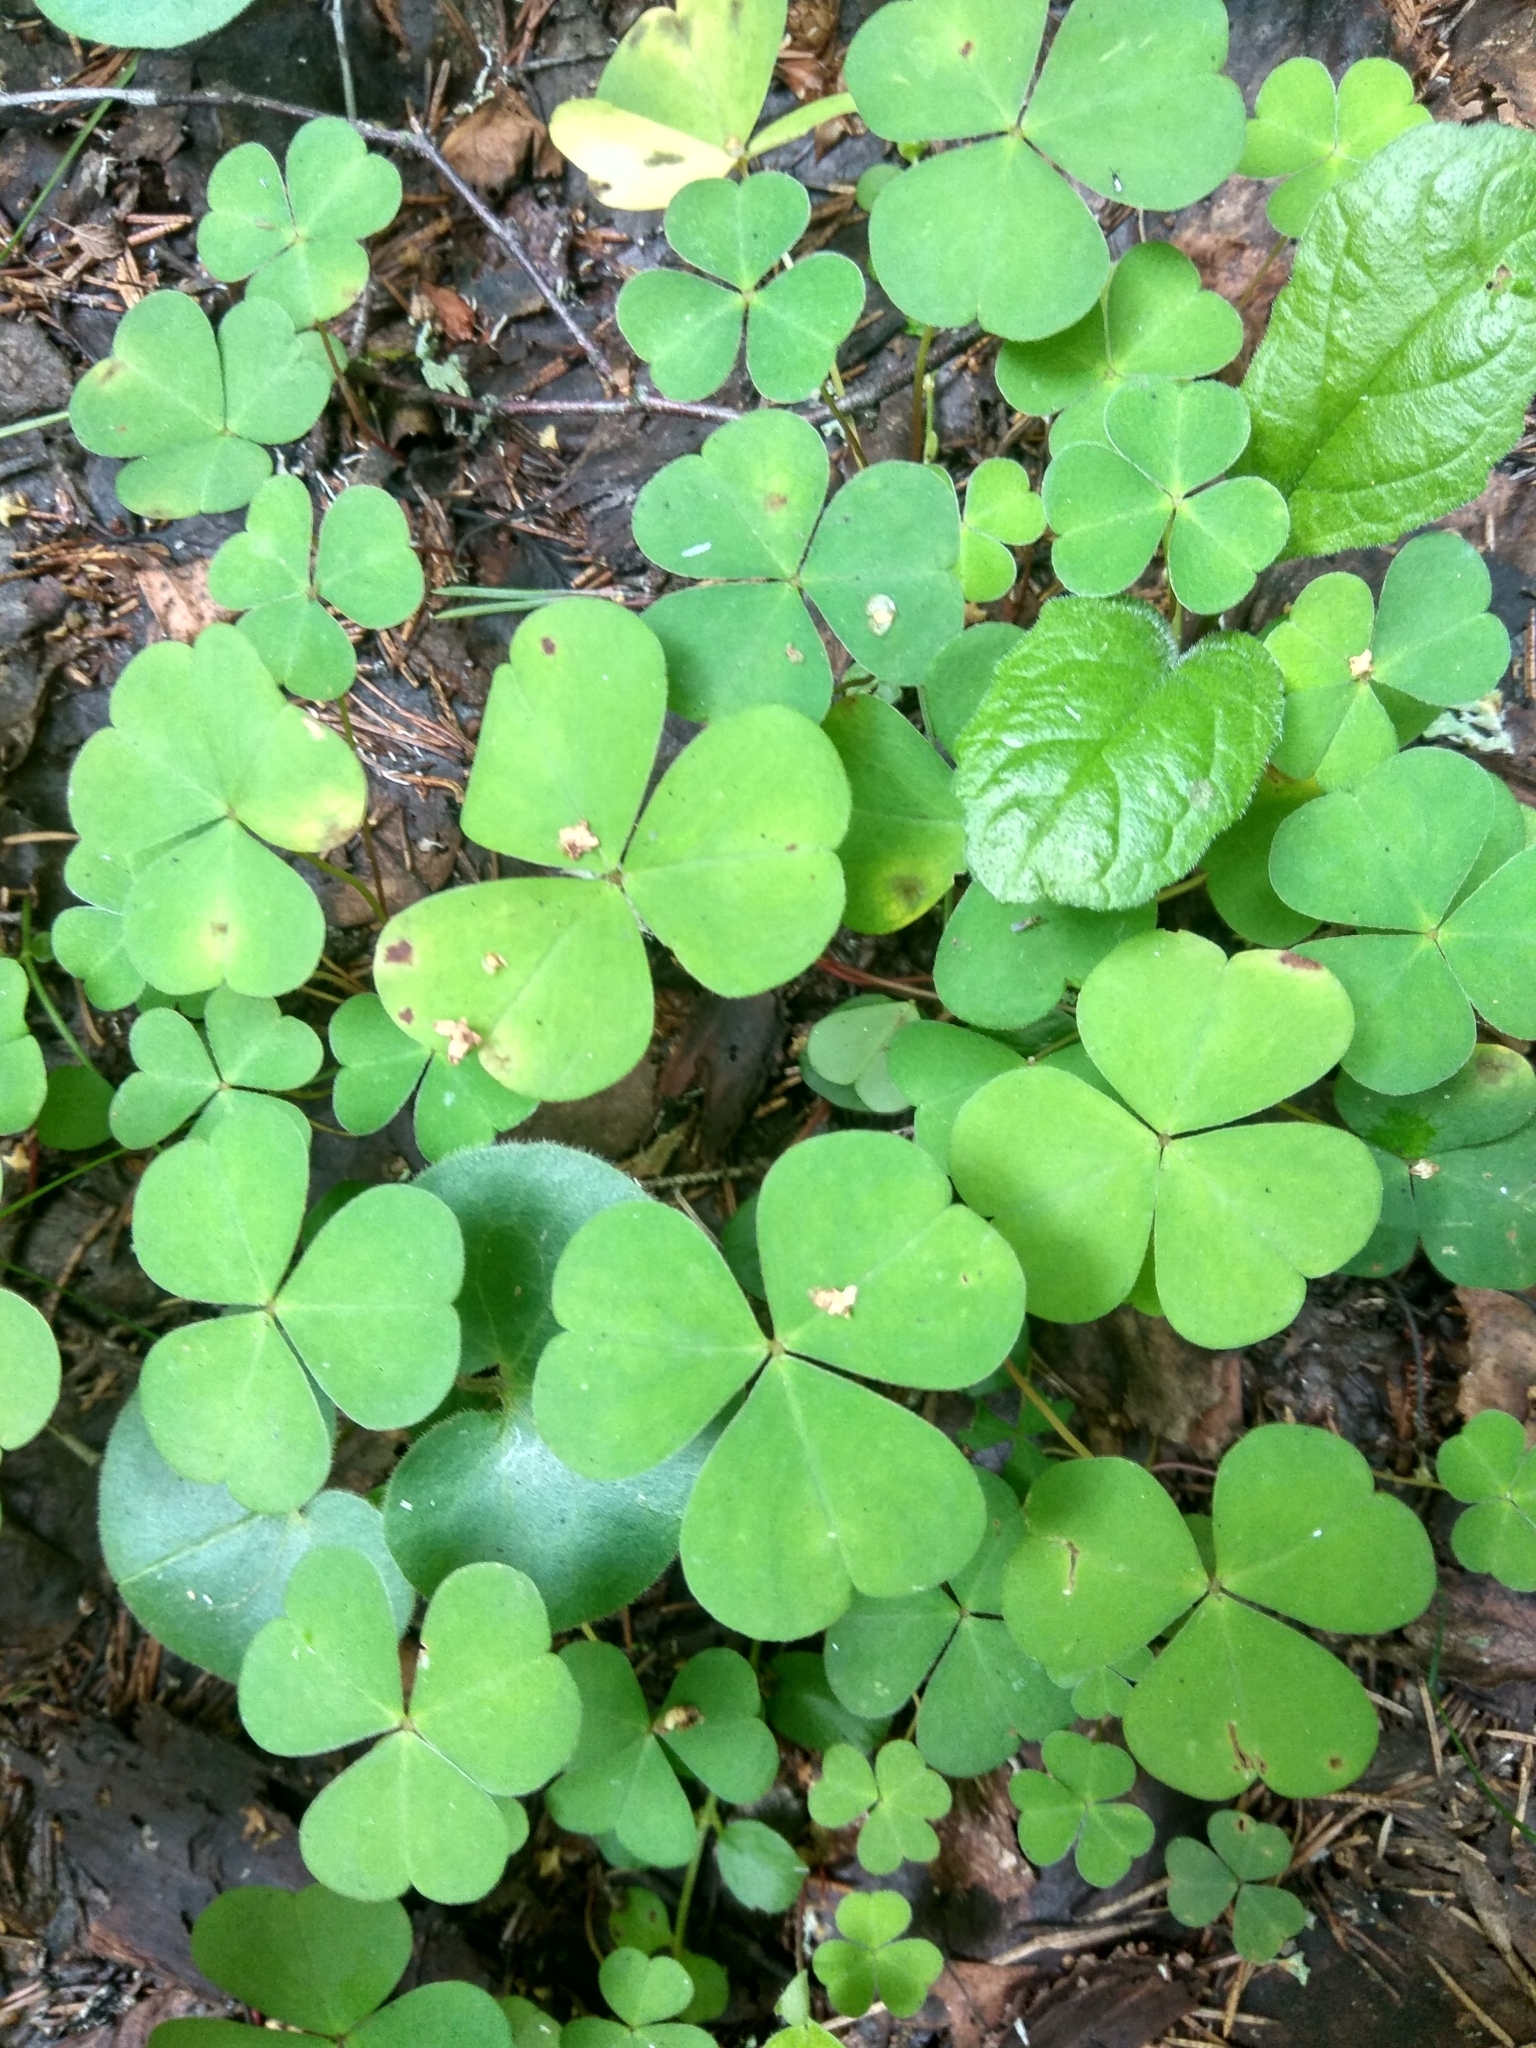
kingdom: Plantae
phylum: Tracheophyta
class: Magnoliopsida
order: Oxalidales
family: Oxalidaceae
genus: Oxalis
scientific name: Oxalis acetosella
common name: Wood-sorrel
